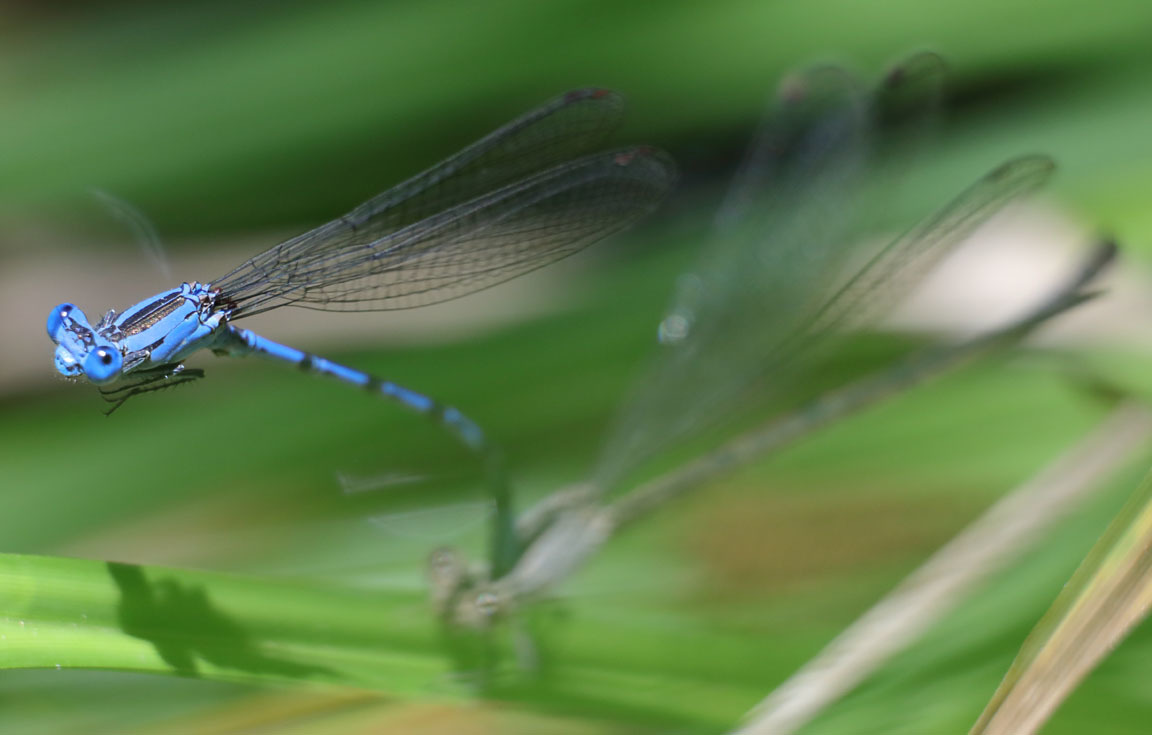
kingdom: Animalia
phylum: Arthropoda
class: Insecta
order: Odonata
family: Coenagrionidae
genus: Argia
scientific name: Argia vivida
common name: Vivid dancer
